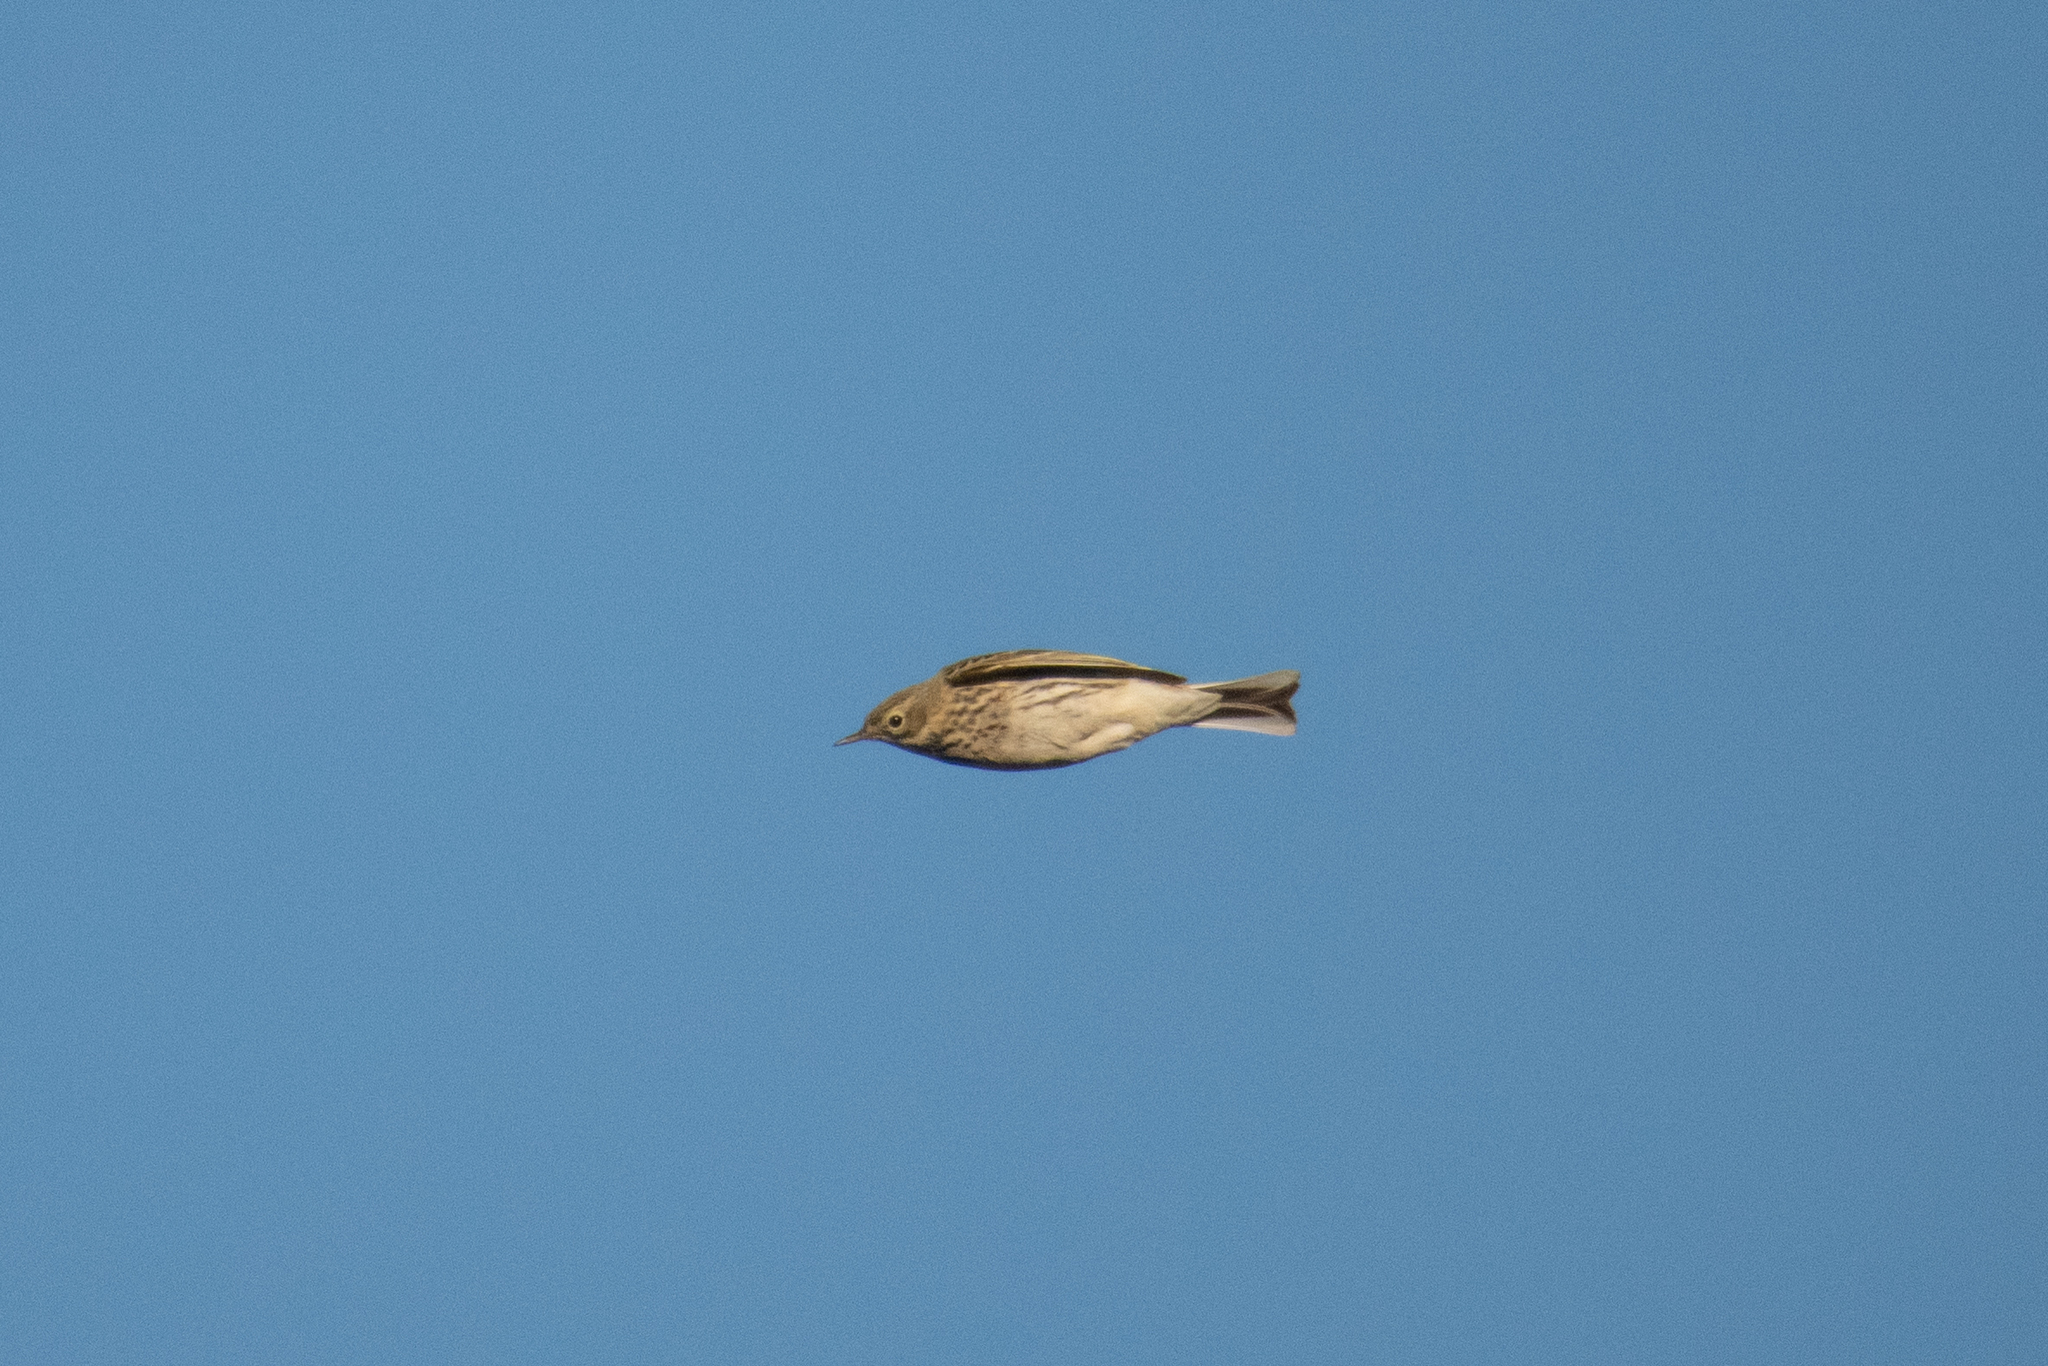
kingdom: Animalia
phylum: Chordata
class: Aves
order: Passeriformes
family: Motacillidae
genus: Anthus
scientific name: Anthus pratensis
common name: Meadow pipit
